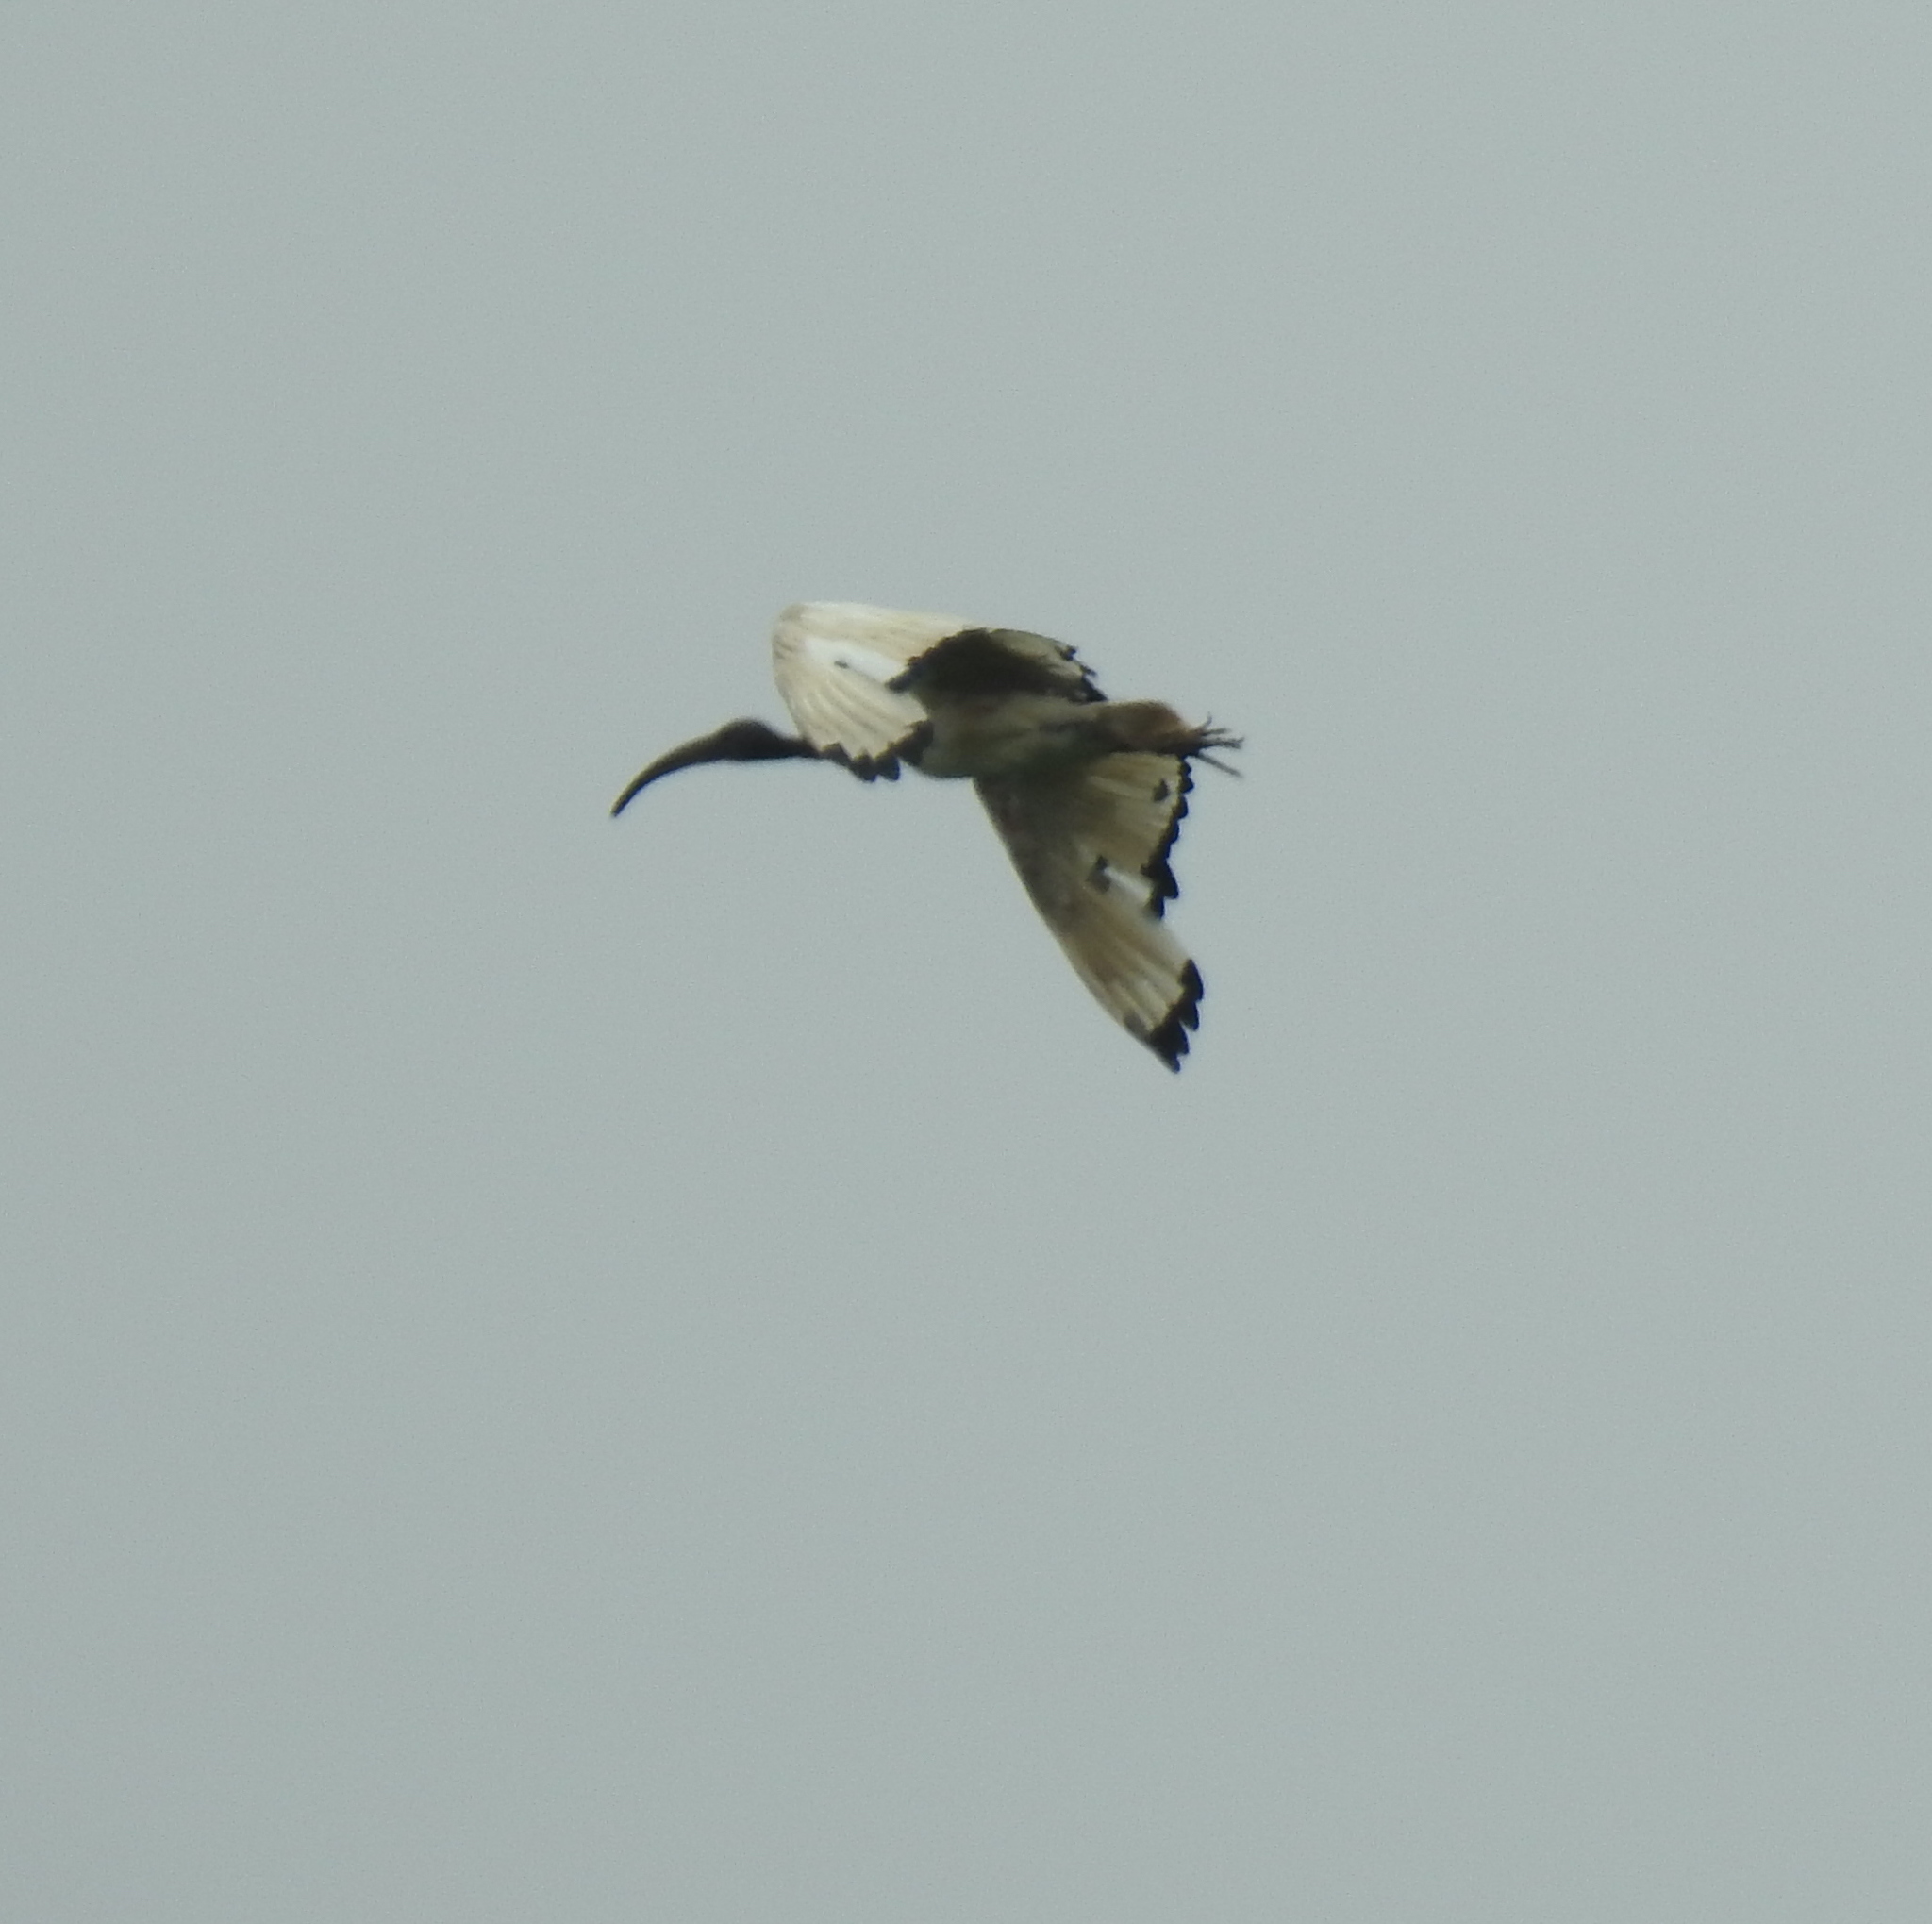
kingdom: Animalia
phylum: Chordata
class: Aves
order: Pelecaniformes
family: Threskiornithidae
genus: Threskiornis
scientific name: Threskiornis aethiopicus
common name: Sacred ibis
